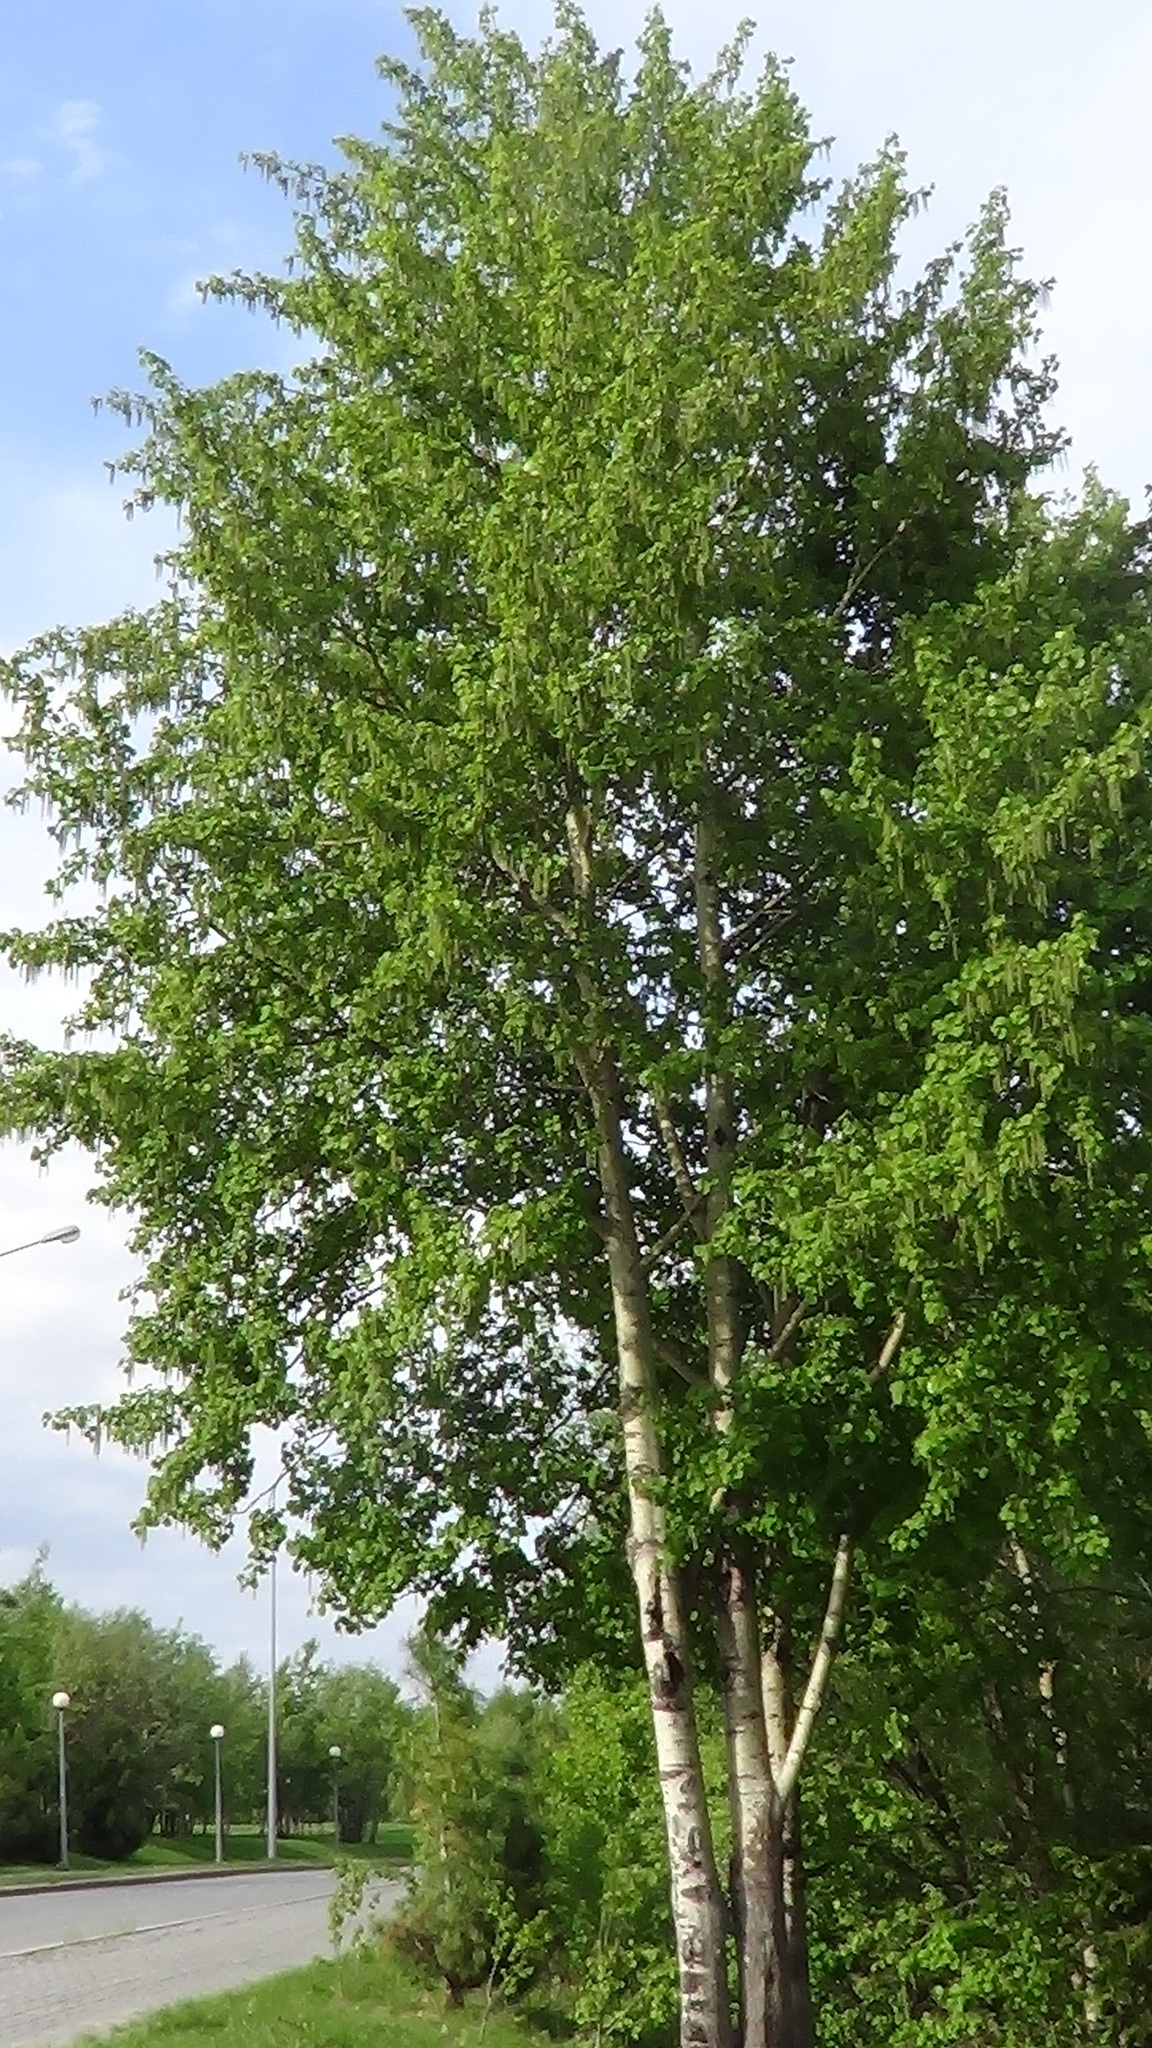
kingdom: Plantae
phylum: Tracheophyta
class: Magnoliopsida
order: Malpighiales
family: Salicaceae
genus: Populus
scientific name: Populus tremula
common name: European aspen
